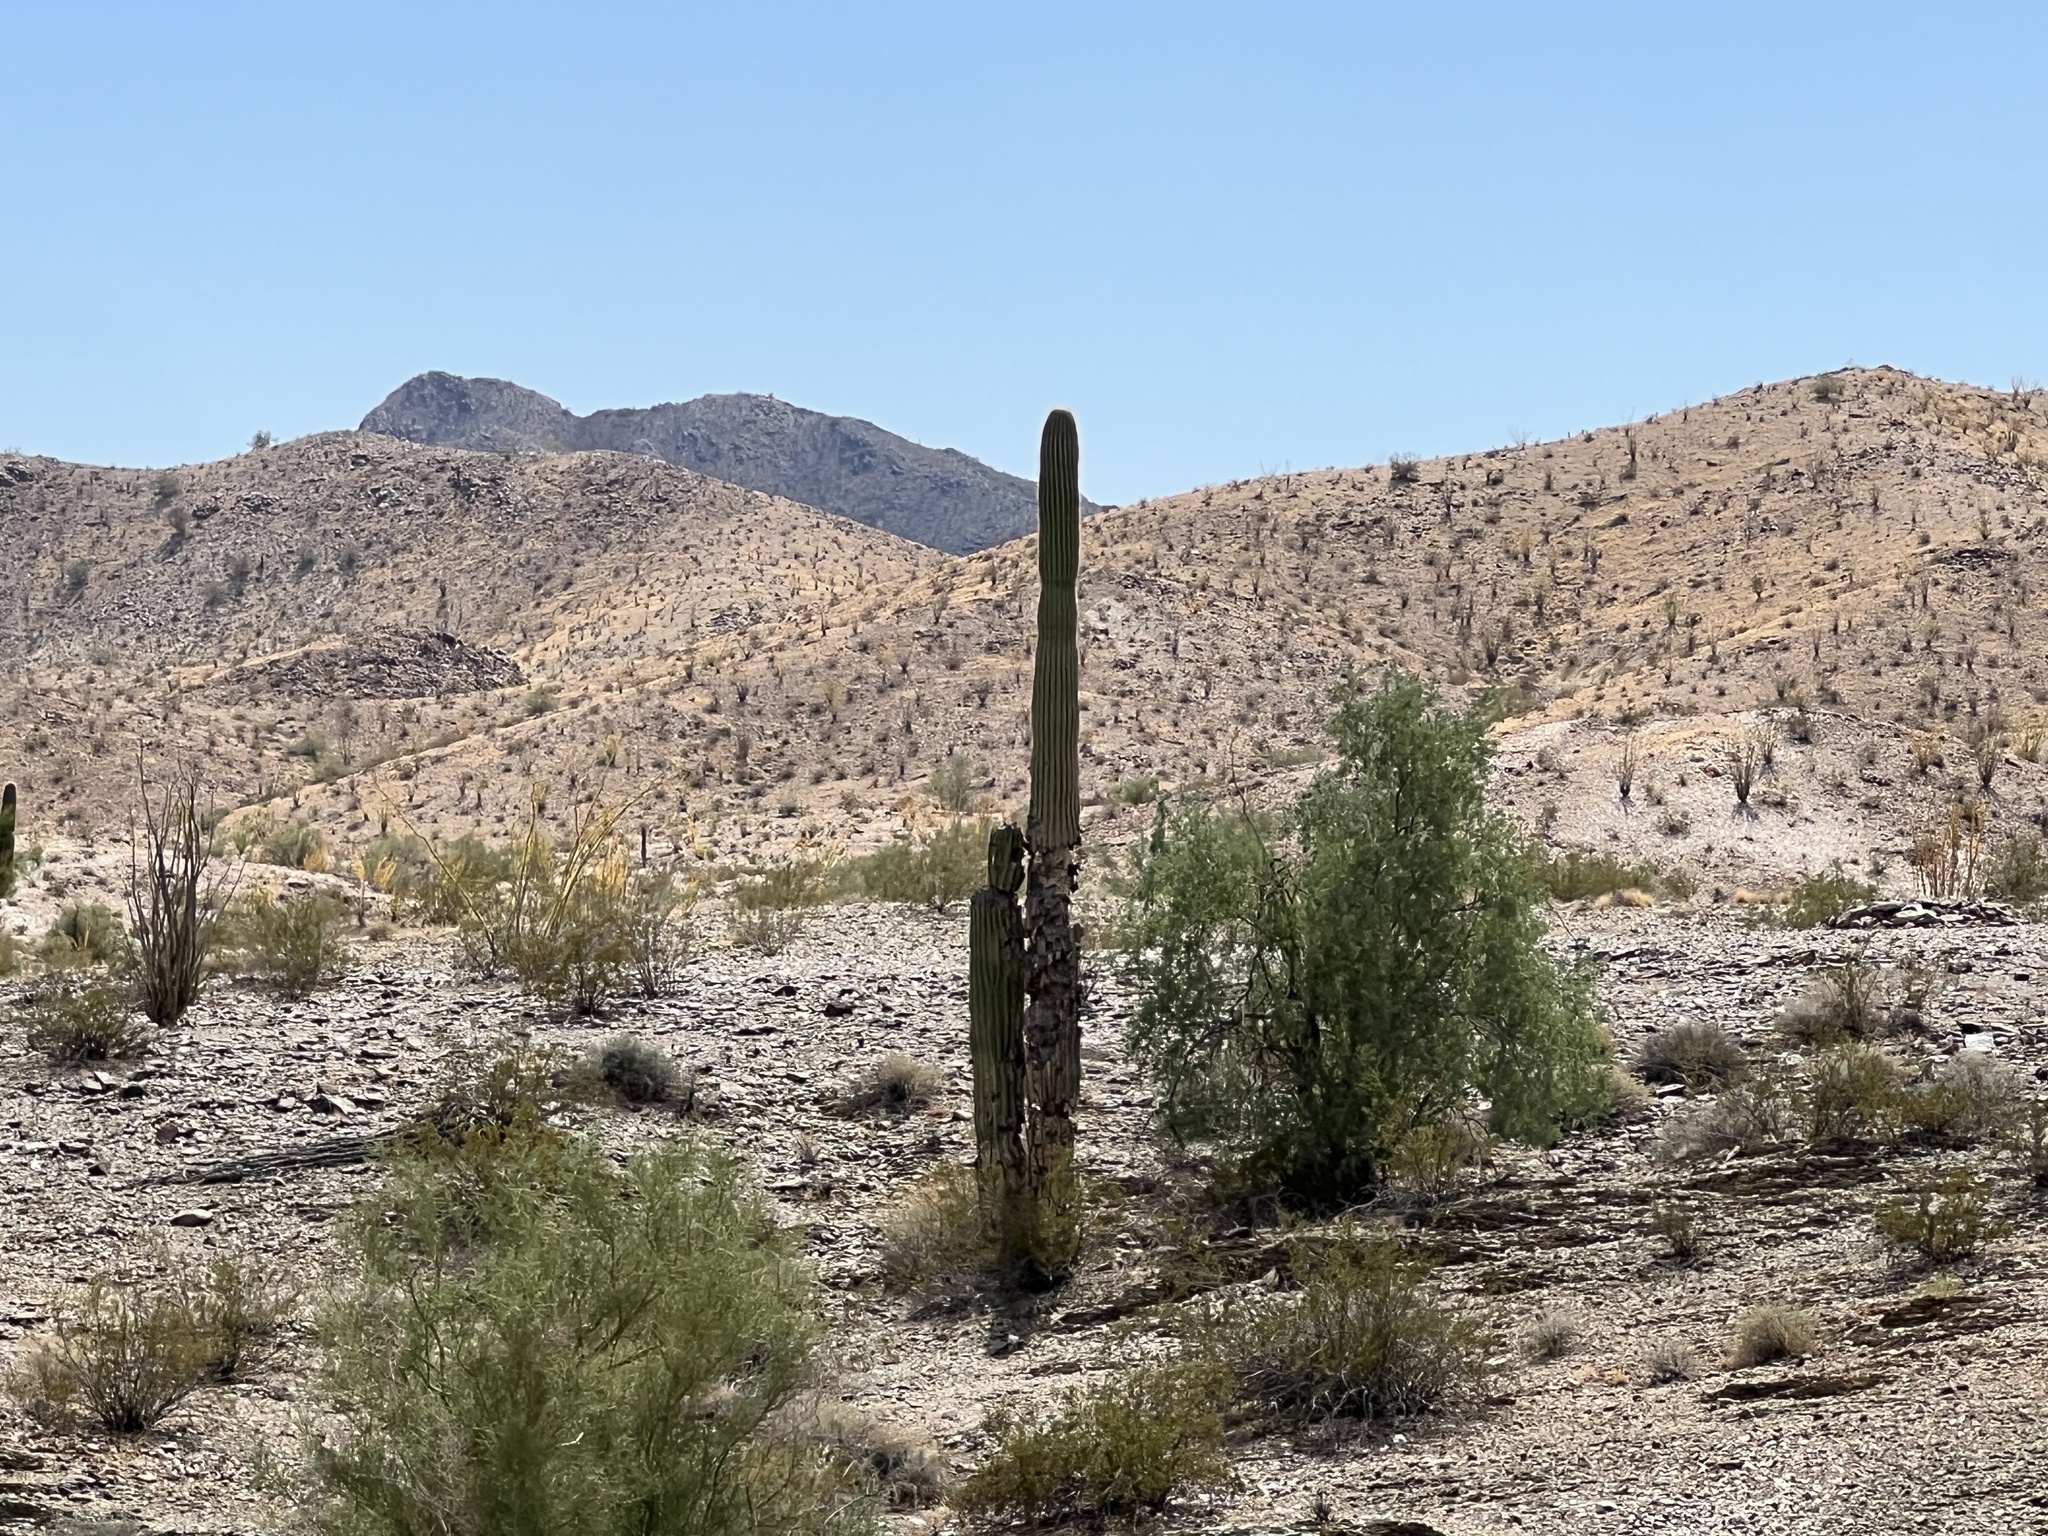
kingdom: Plantae
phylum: Tracheophyta
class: Magnoliopsida
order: Caryophyllales
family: Cactaceae
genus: Carnegiea
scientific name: Carnegiea gigantea
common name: Saguaro
